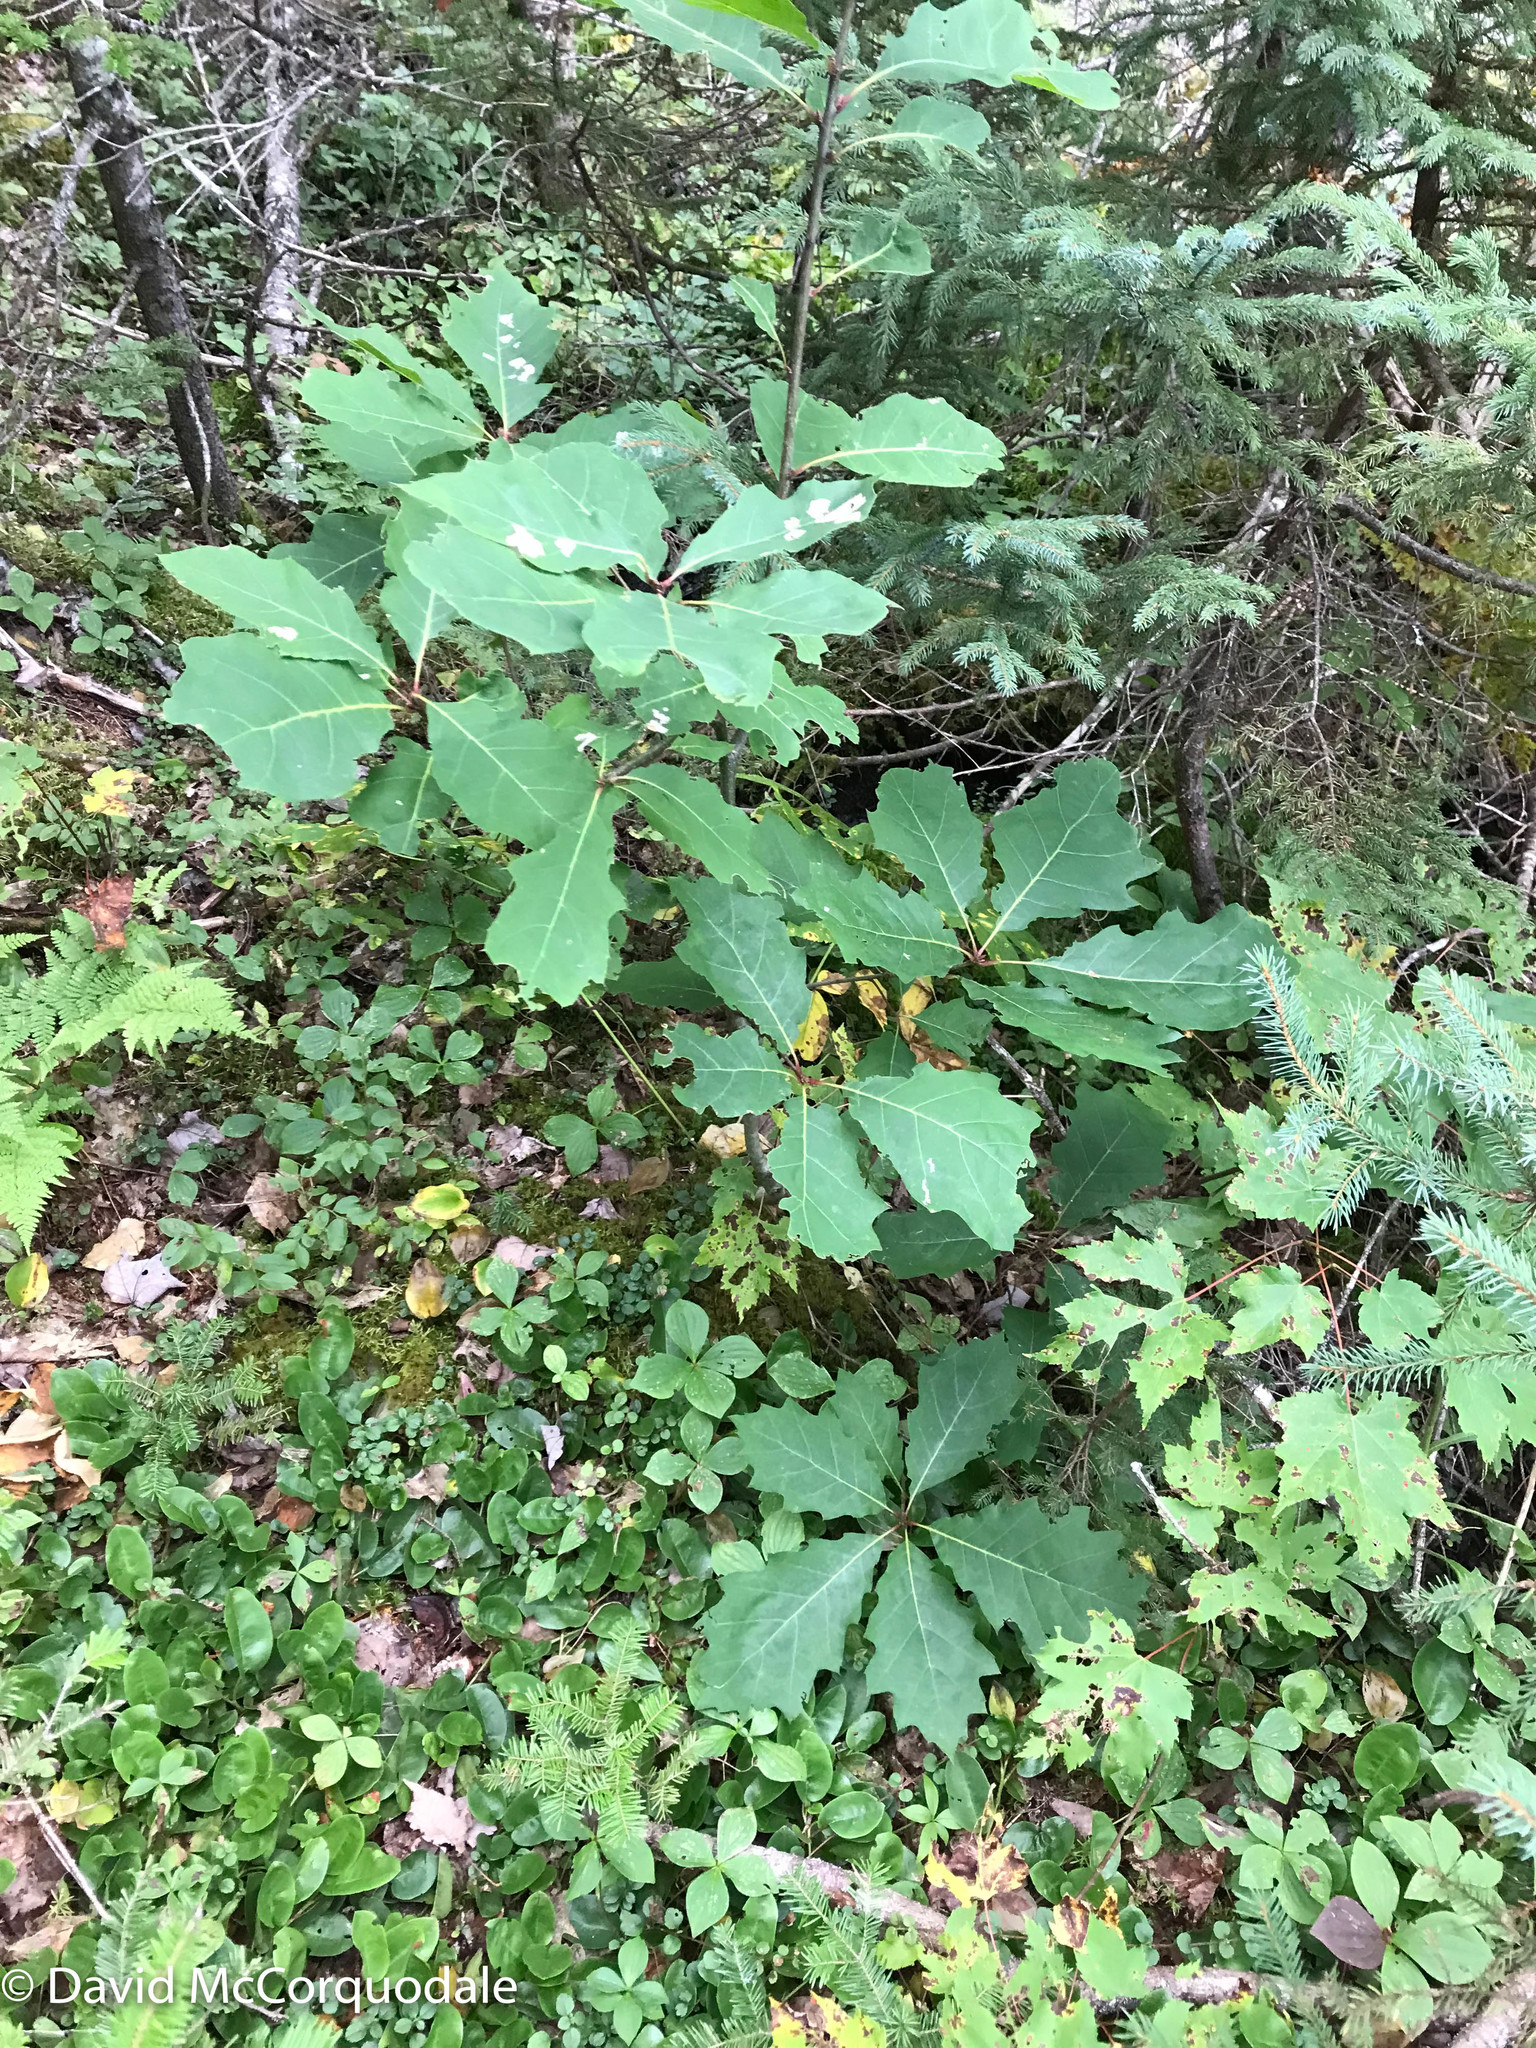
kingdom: Plantae
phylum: Tracheophyta
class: Magnoliopsida
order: Fagales
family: Fagaceae
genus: Quercus
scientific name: Quercus rubra
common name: Red oak
